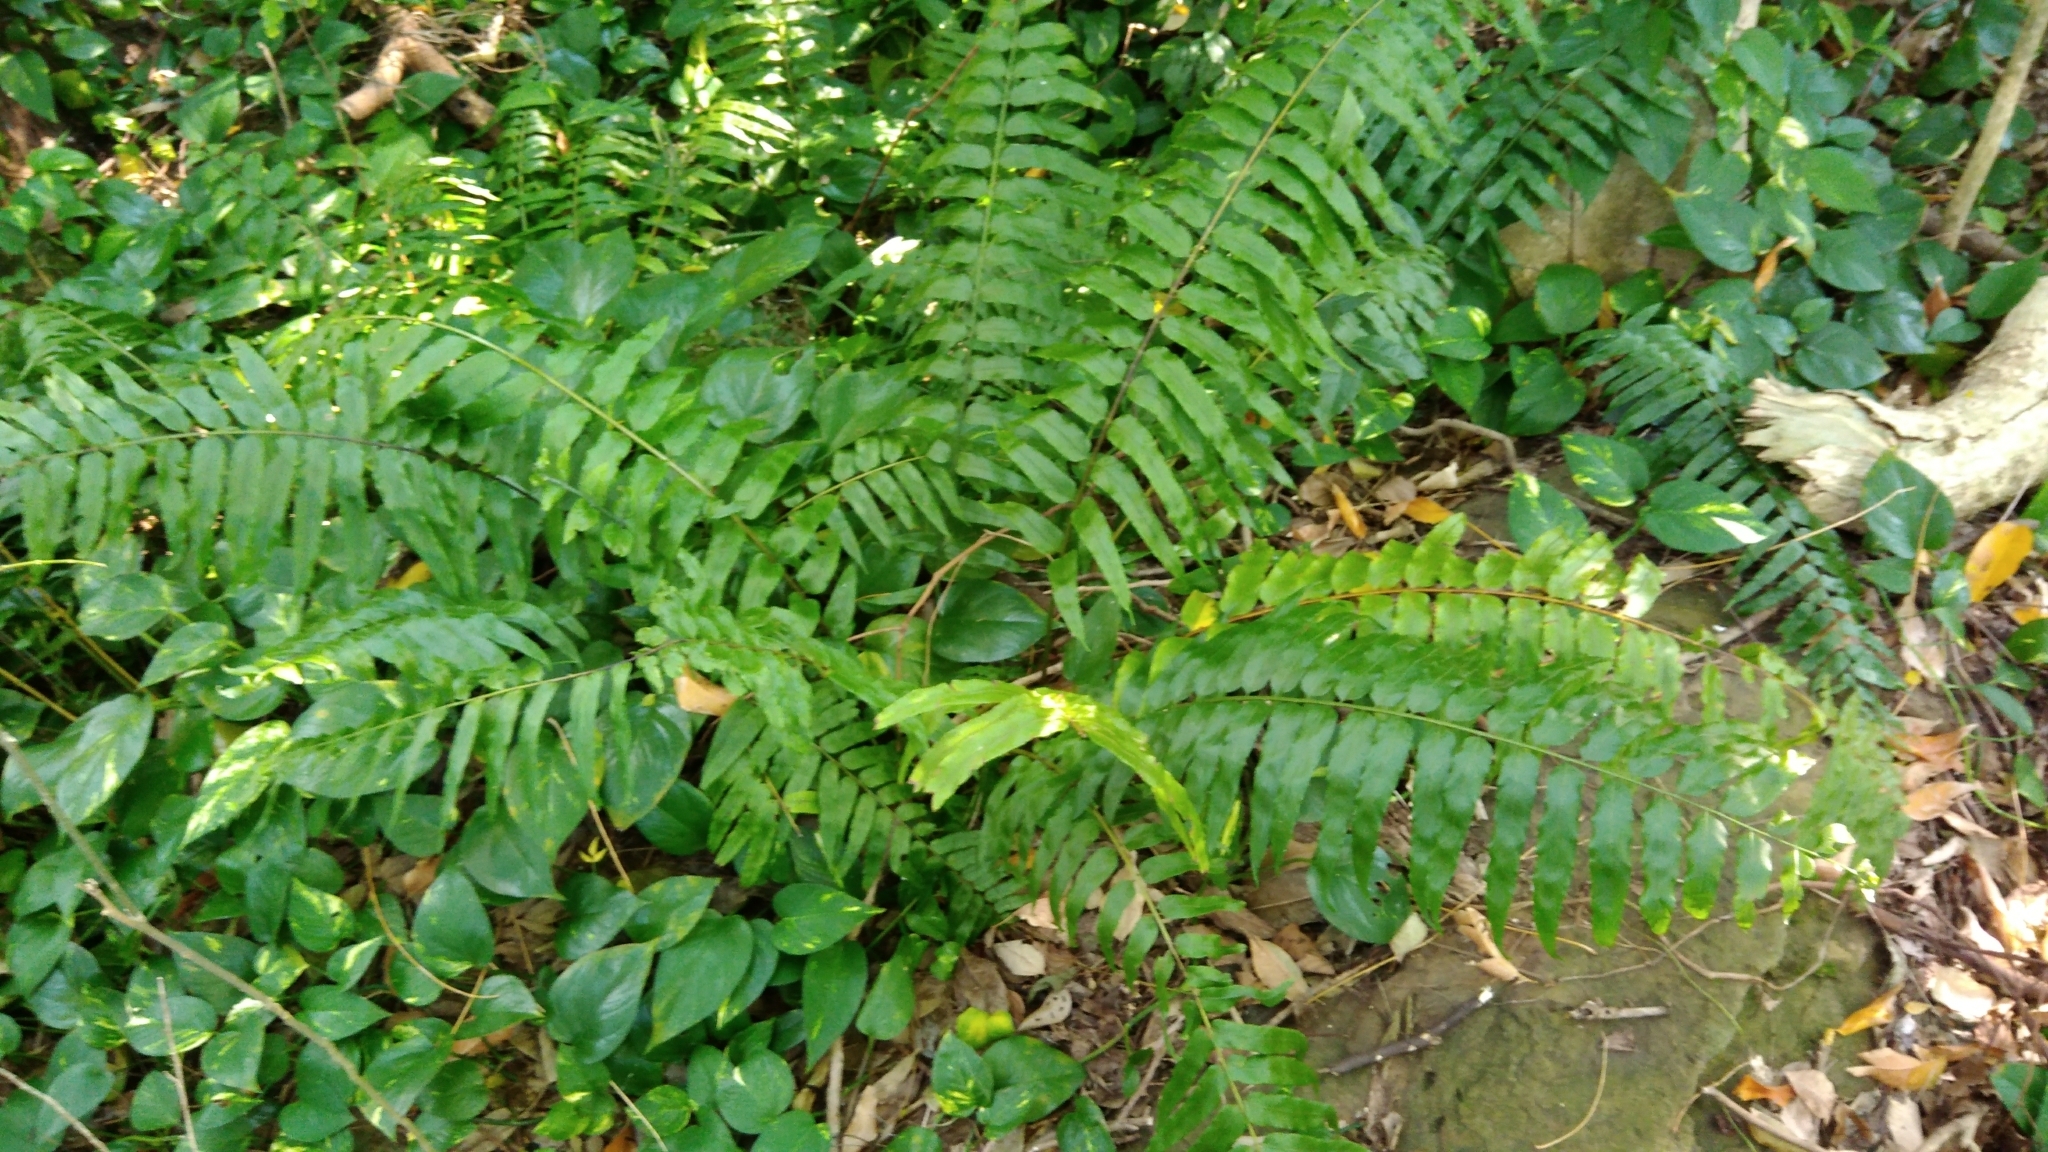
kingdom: Plantae
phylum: Tracheophyta
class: Polypodiopsida
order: Polypodiales
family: Nephrolepidaceae
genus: Nephrolepis
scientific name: Nephrolepis biserrata
